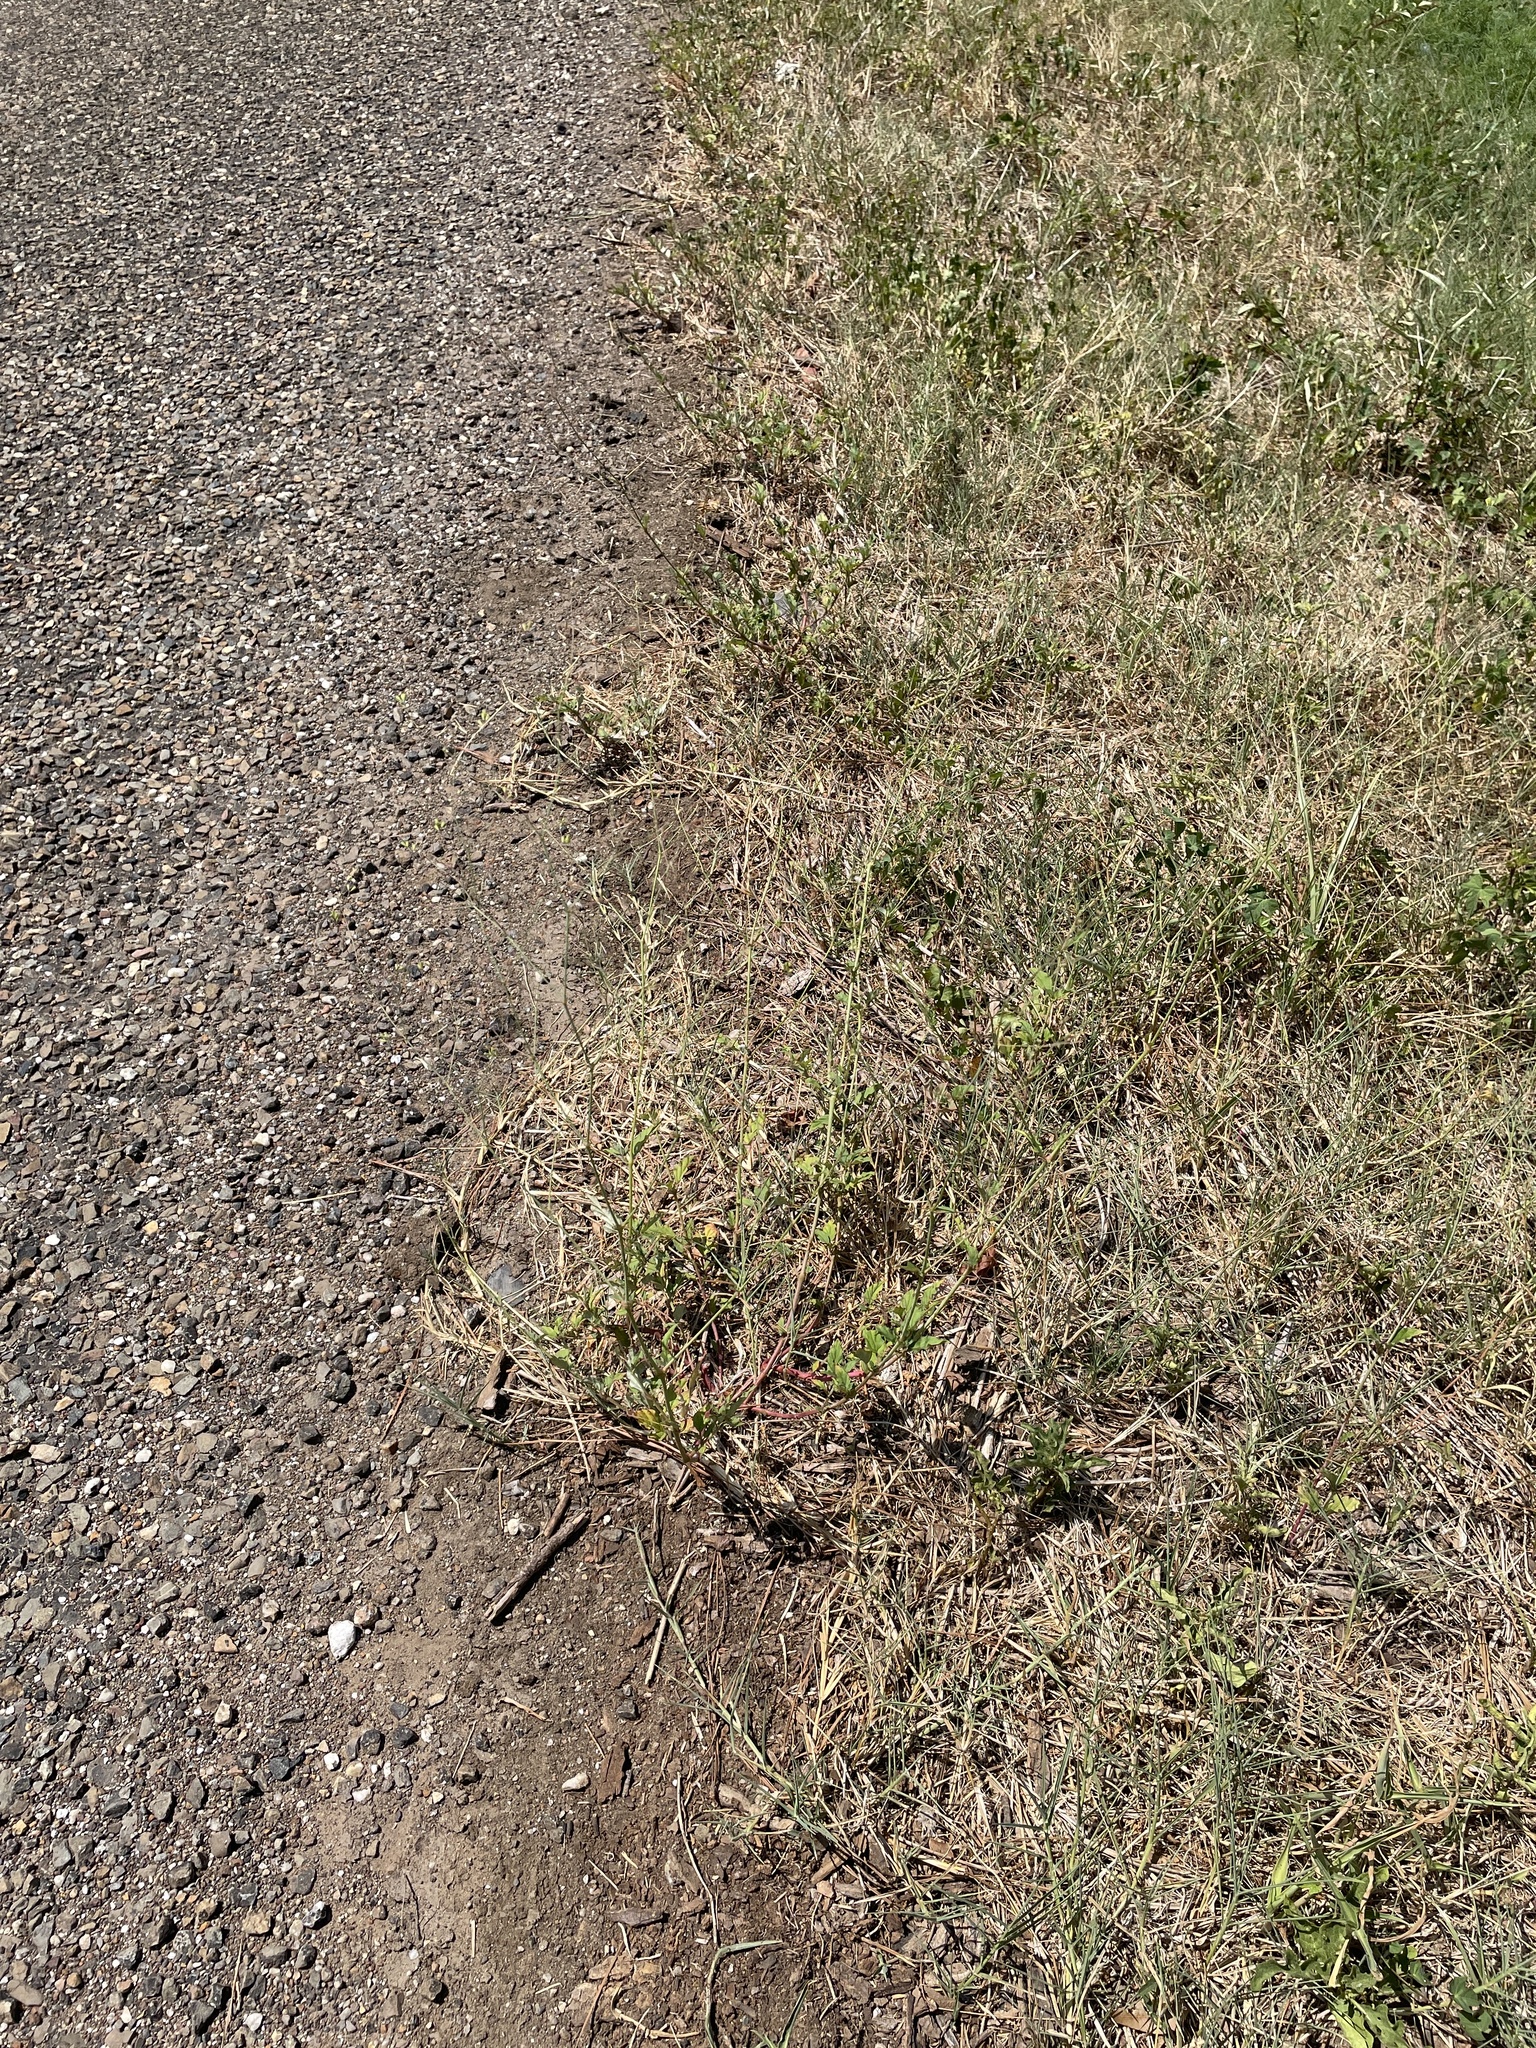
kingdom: Plantae
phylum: Tracheophyta
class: Magnoliopsida
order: Caryophyllales
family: Nyctaginaceae
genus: Boerhavia
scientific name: Boerhavia erecta
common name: Erect spiderling
